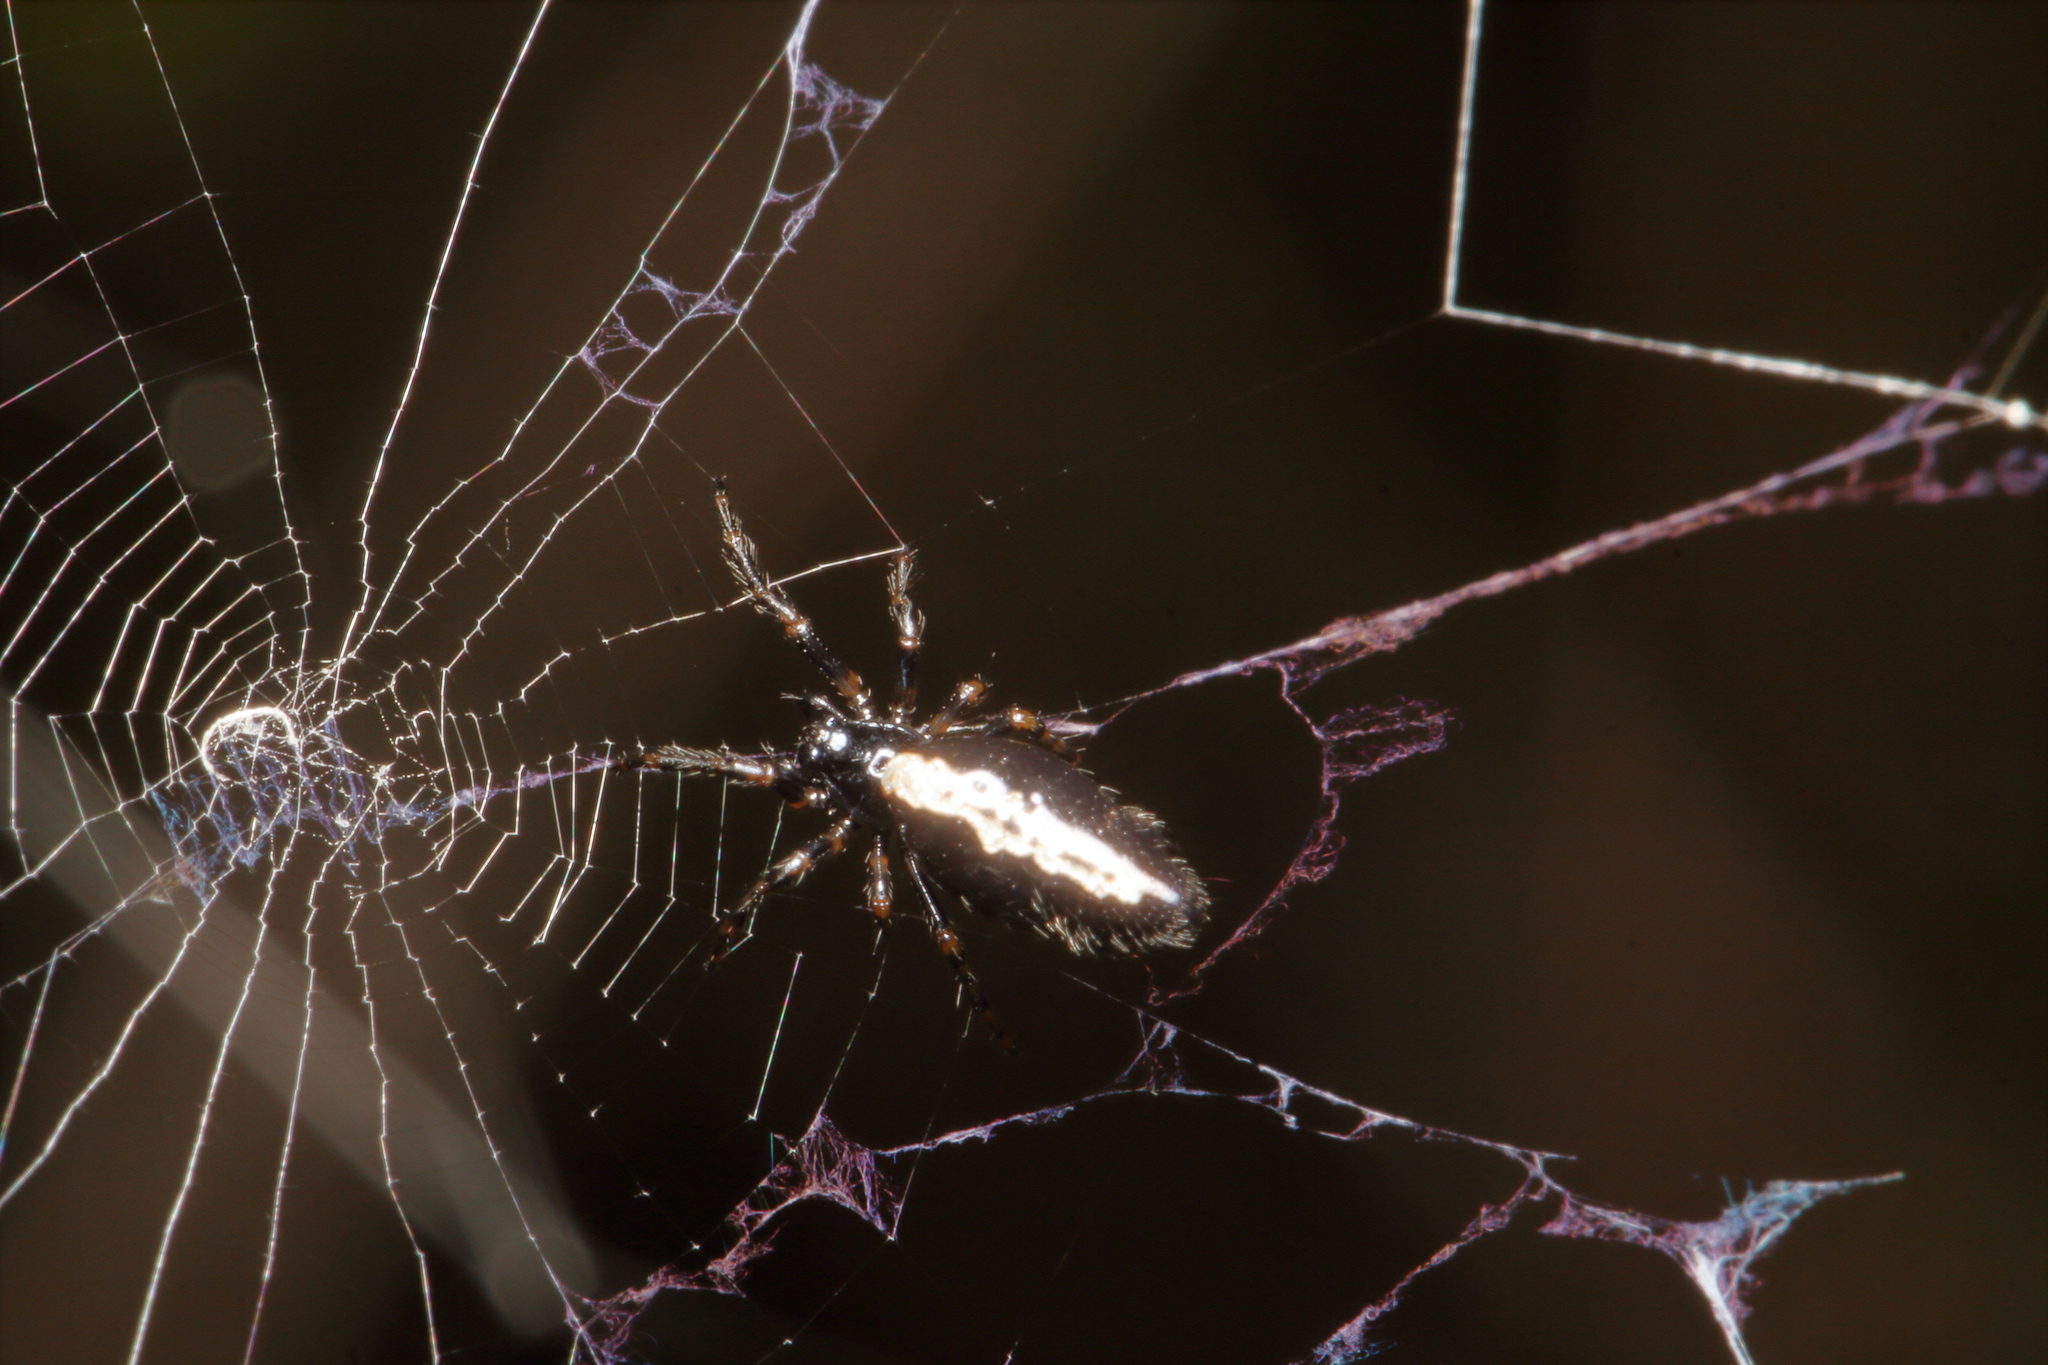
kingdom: Animalia
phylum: Arthropoda
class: Arachnida
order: Araneae
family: Araneidae
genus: Cyclosa
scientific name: Cyclosa trilobata
